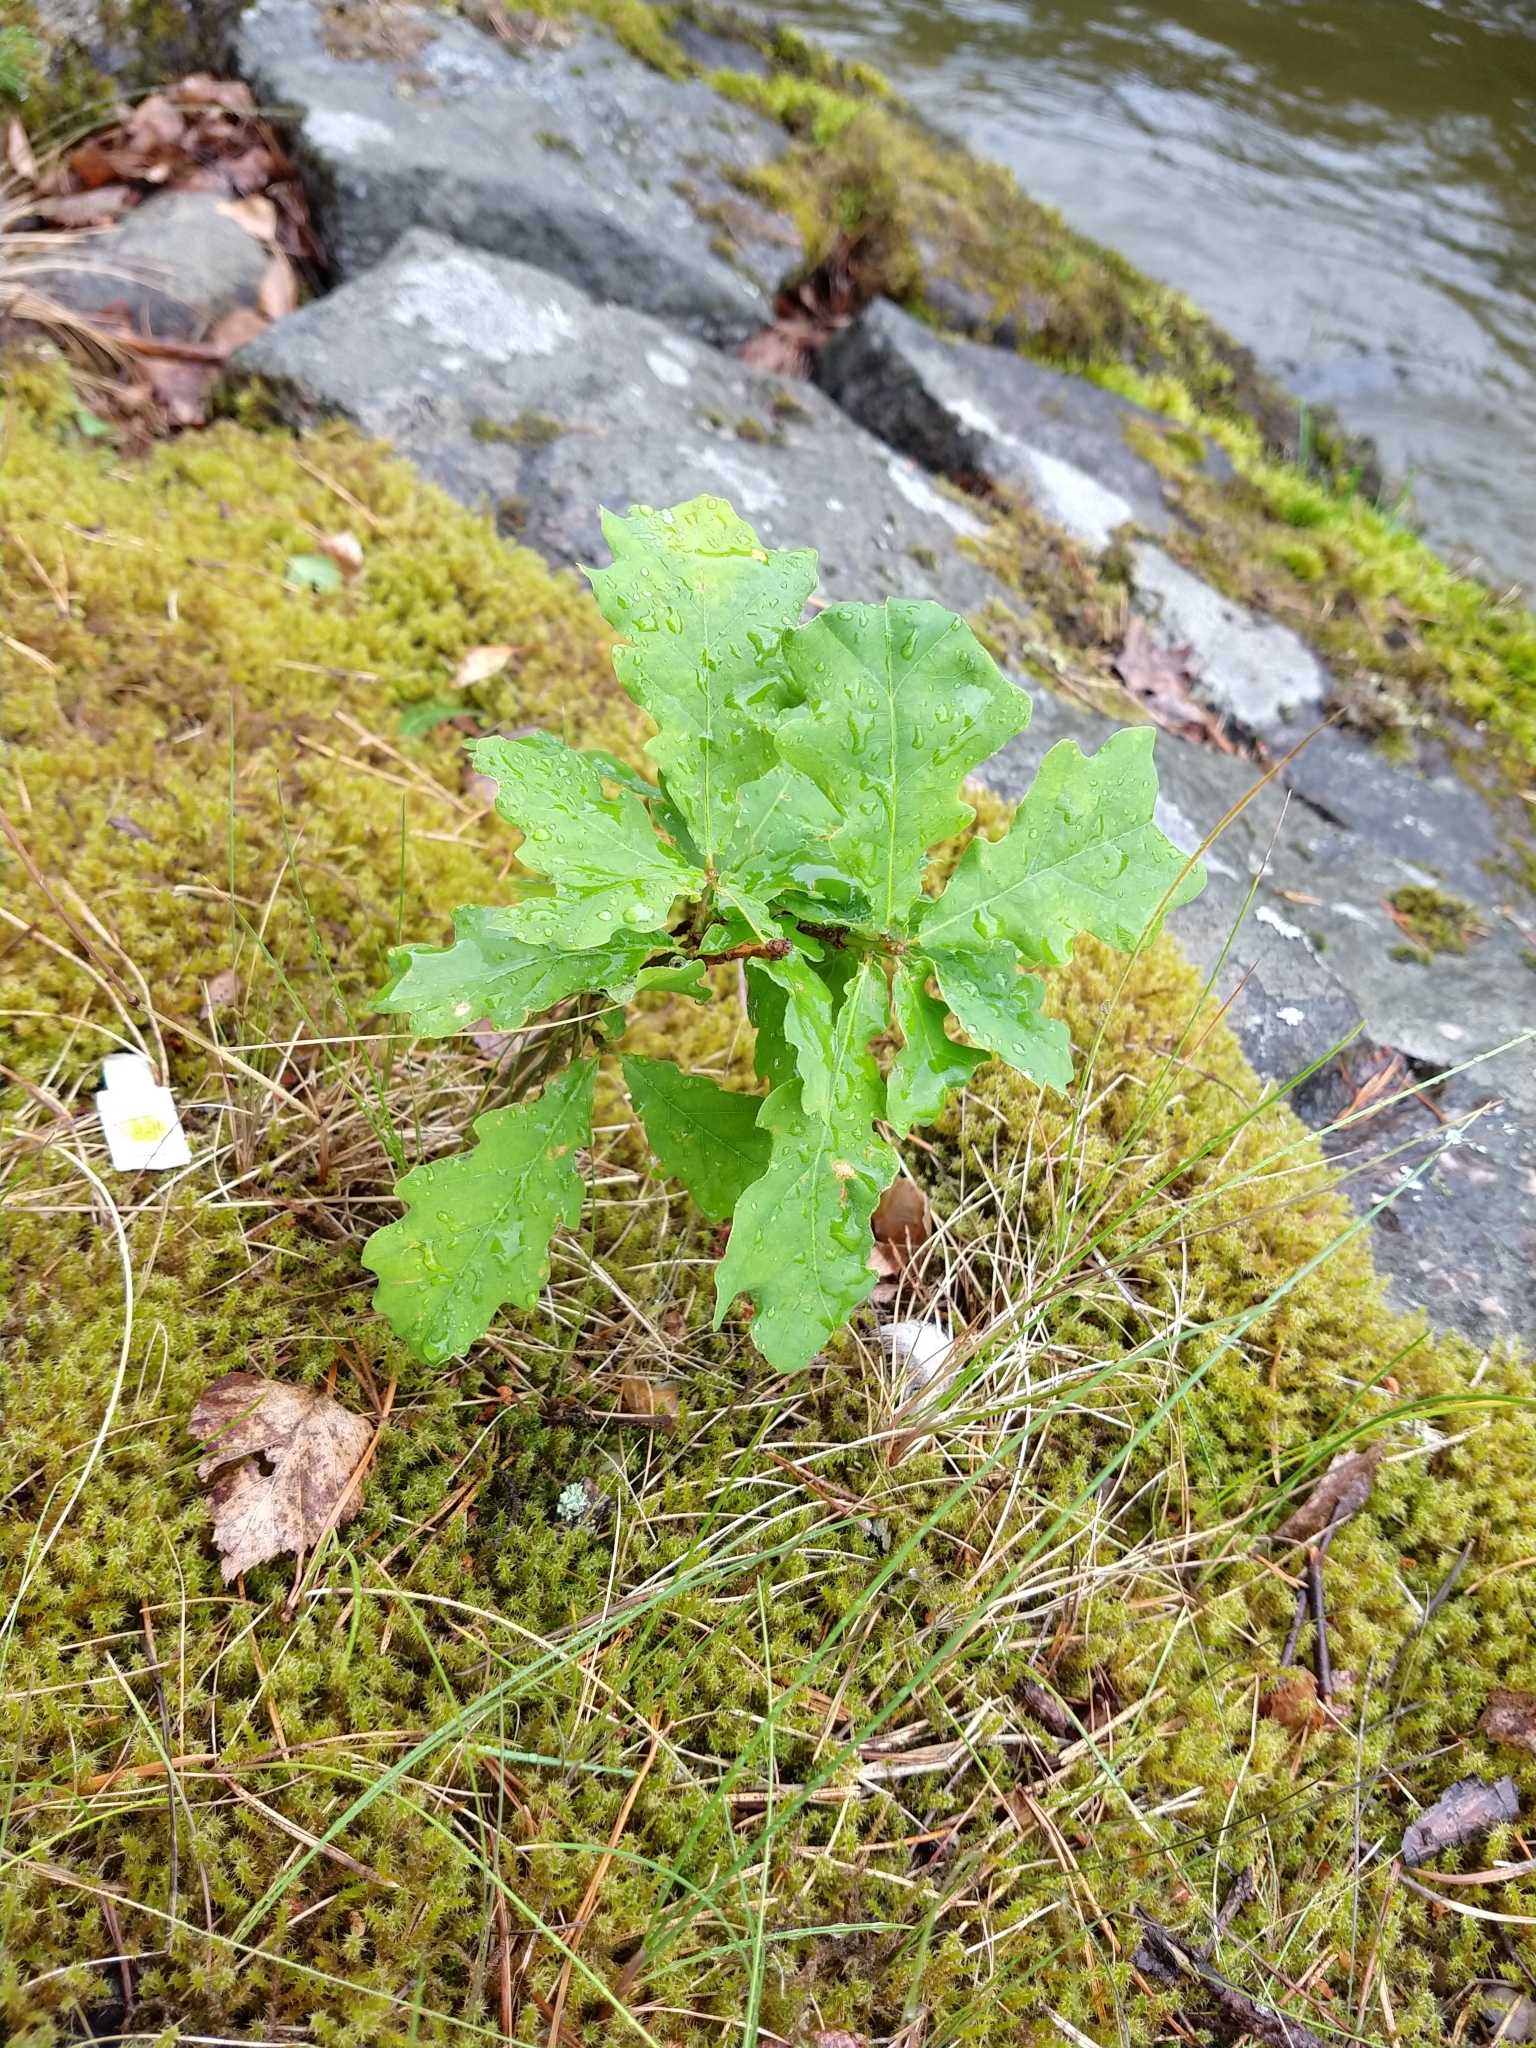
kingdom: Plantae
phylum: Tracheophyta
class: Magnoliopsida
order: Fagales
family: Fagaceae
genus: Quercus
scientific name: Quercus robur
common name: Pedunculate oak
